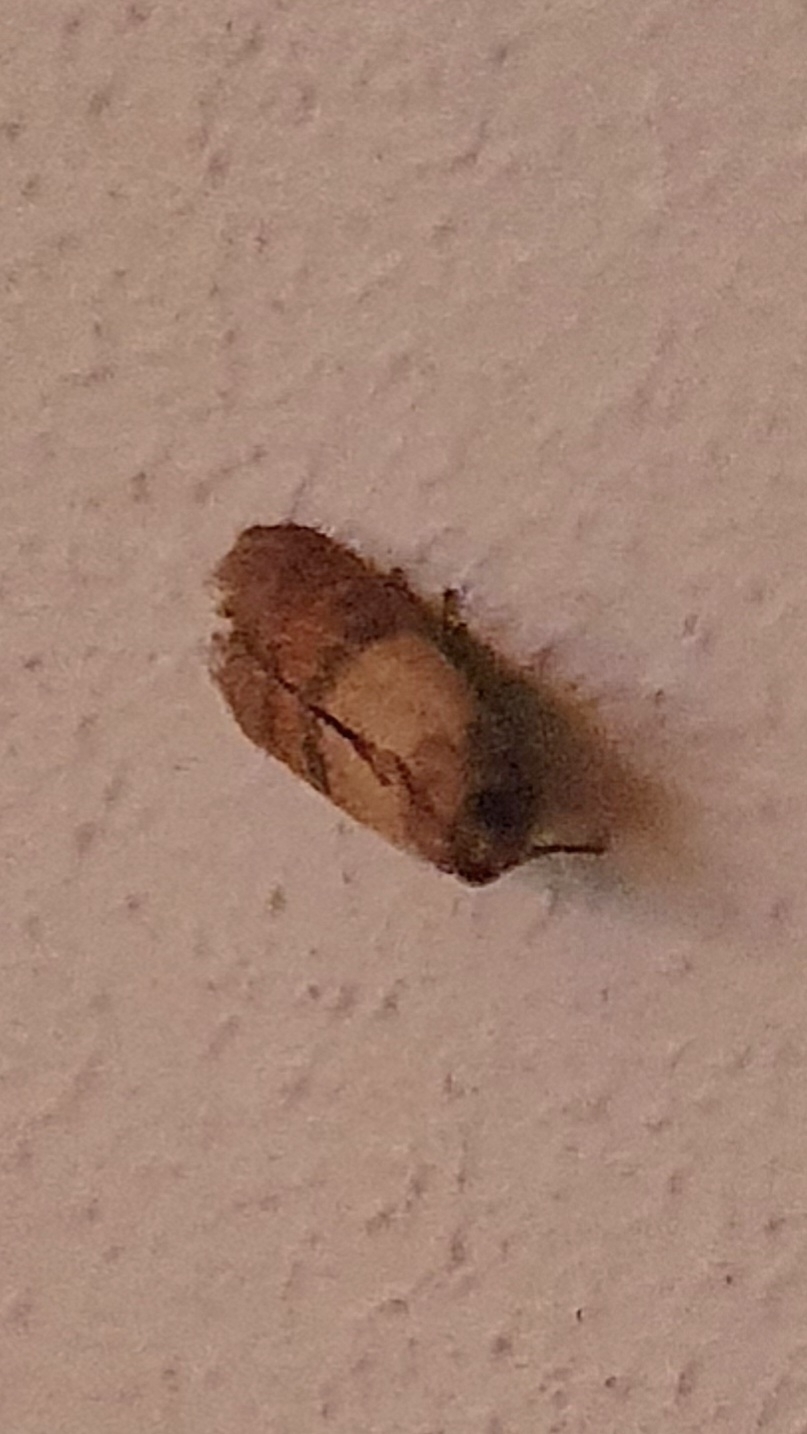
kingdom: Animalia
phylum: Arthropoda
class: Insecta
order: Lepidoptera
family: Pyralidae
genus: Plodia
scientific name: Plodia interpunctella
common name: Indian meal moth
